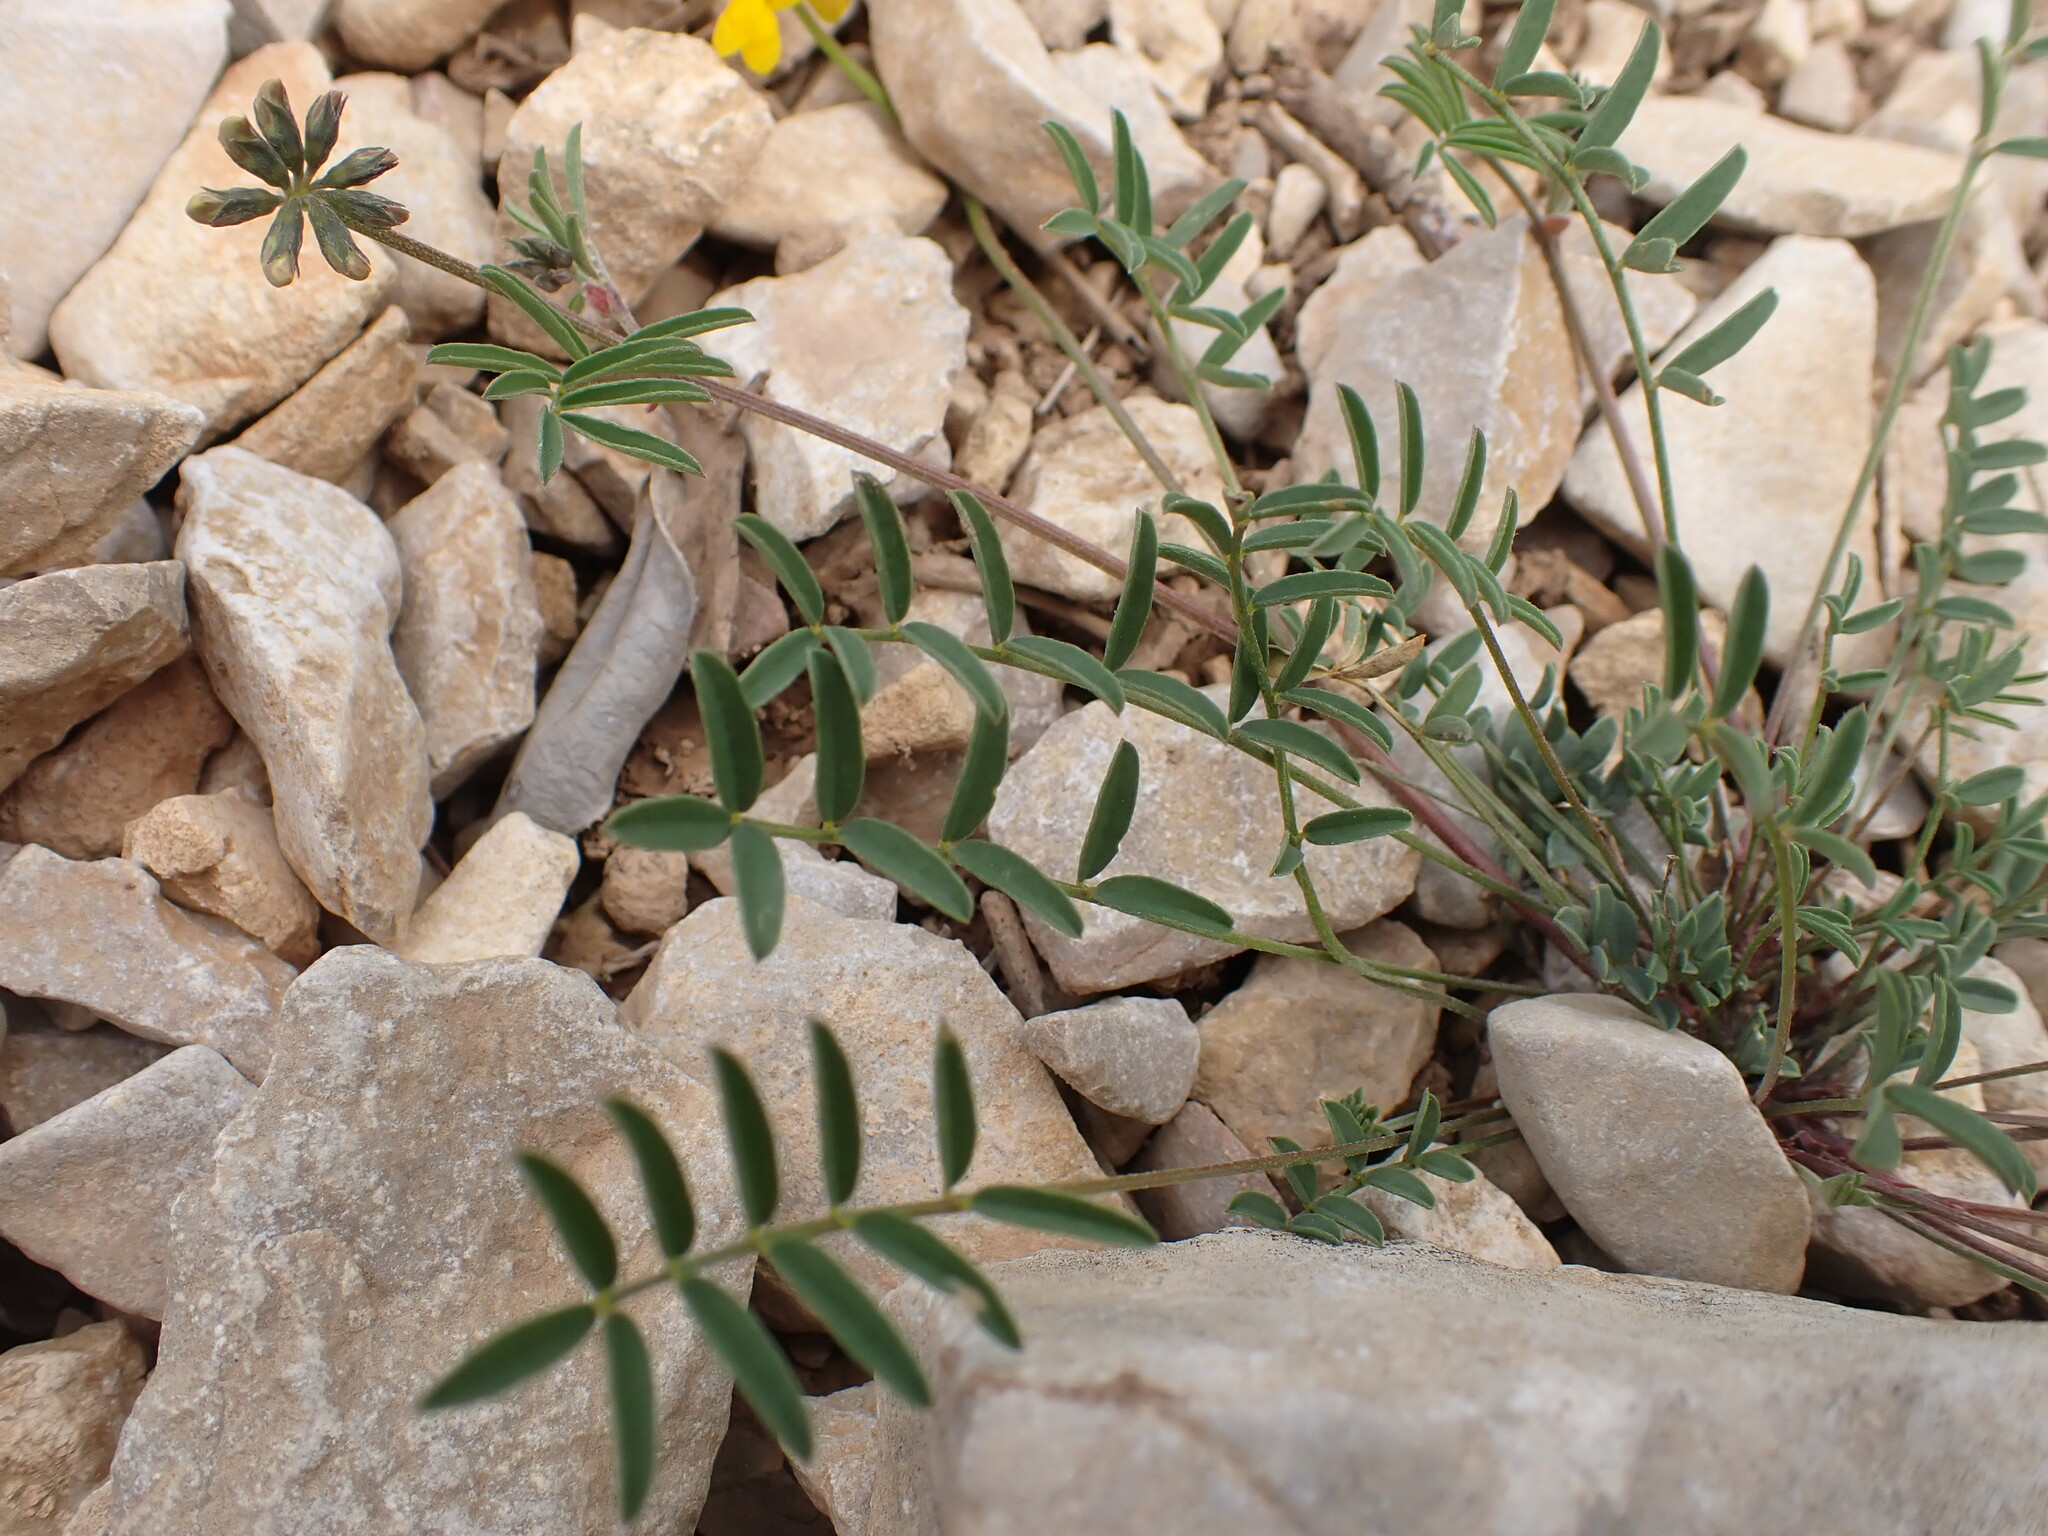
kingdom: Plantae
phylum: Tracheophyta
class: Magnoliopsida
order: Fabales
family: Fabaceae
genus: Hippocrepis
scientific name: Hippocrepis comosa
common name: Horseshoe vetch
